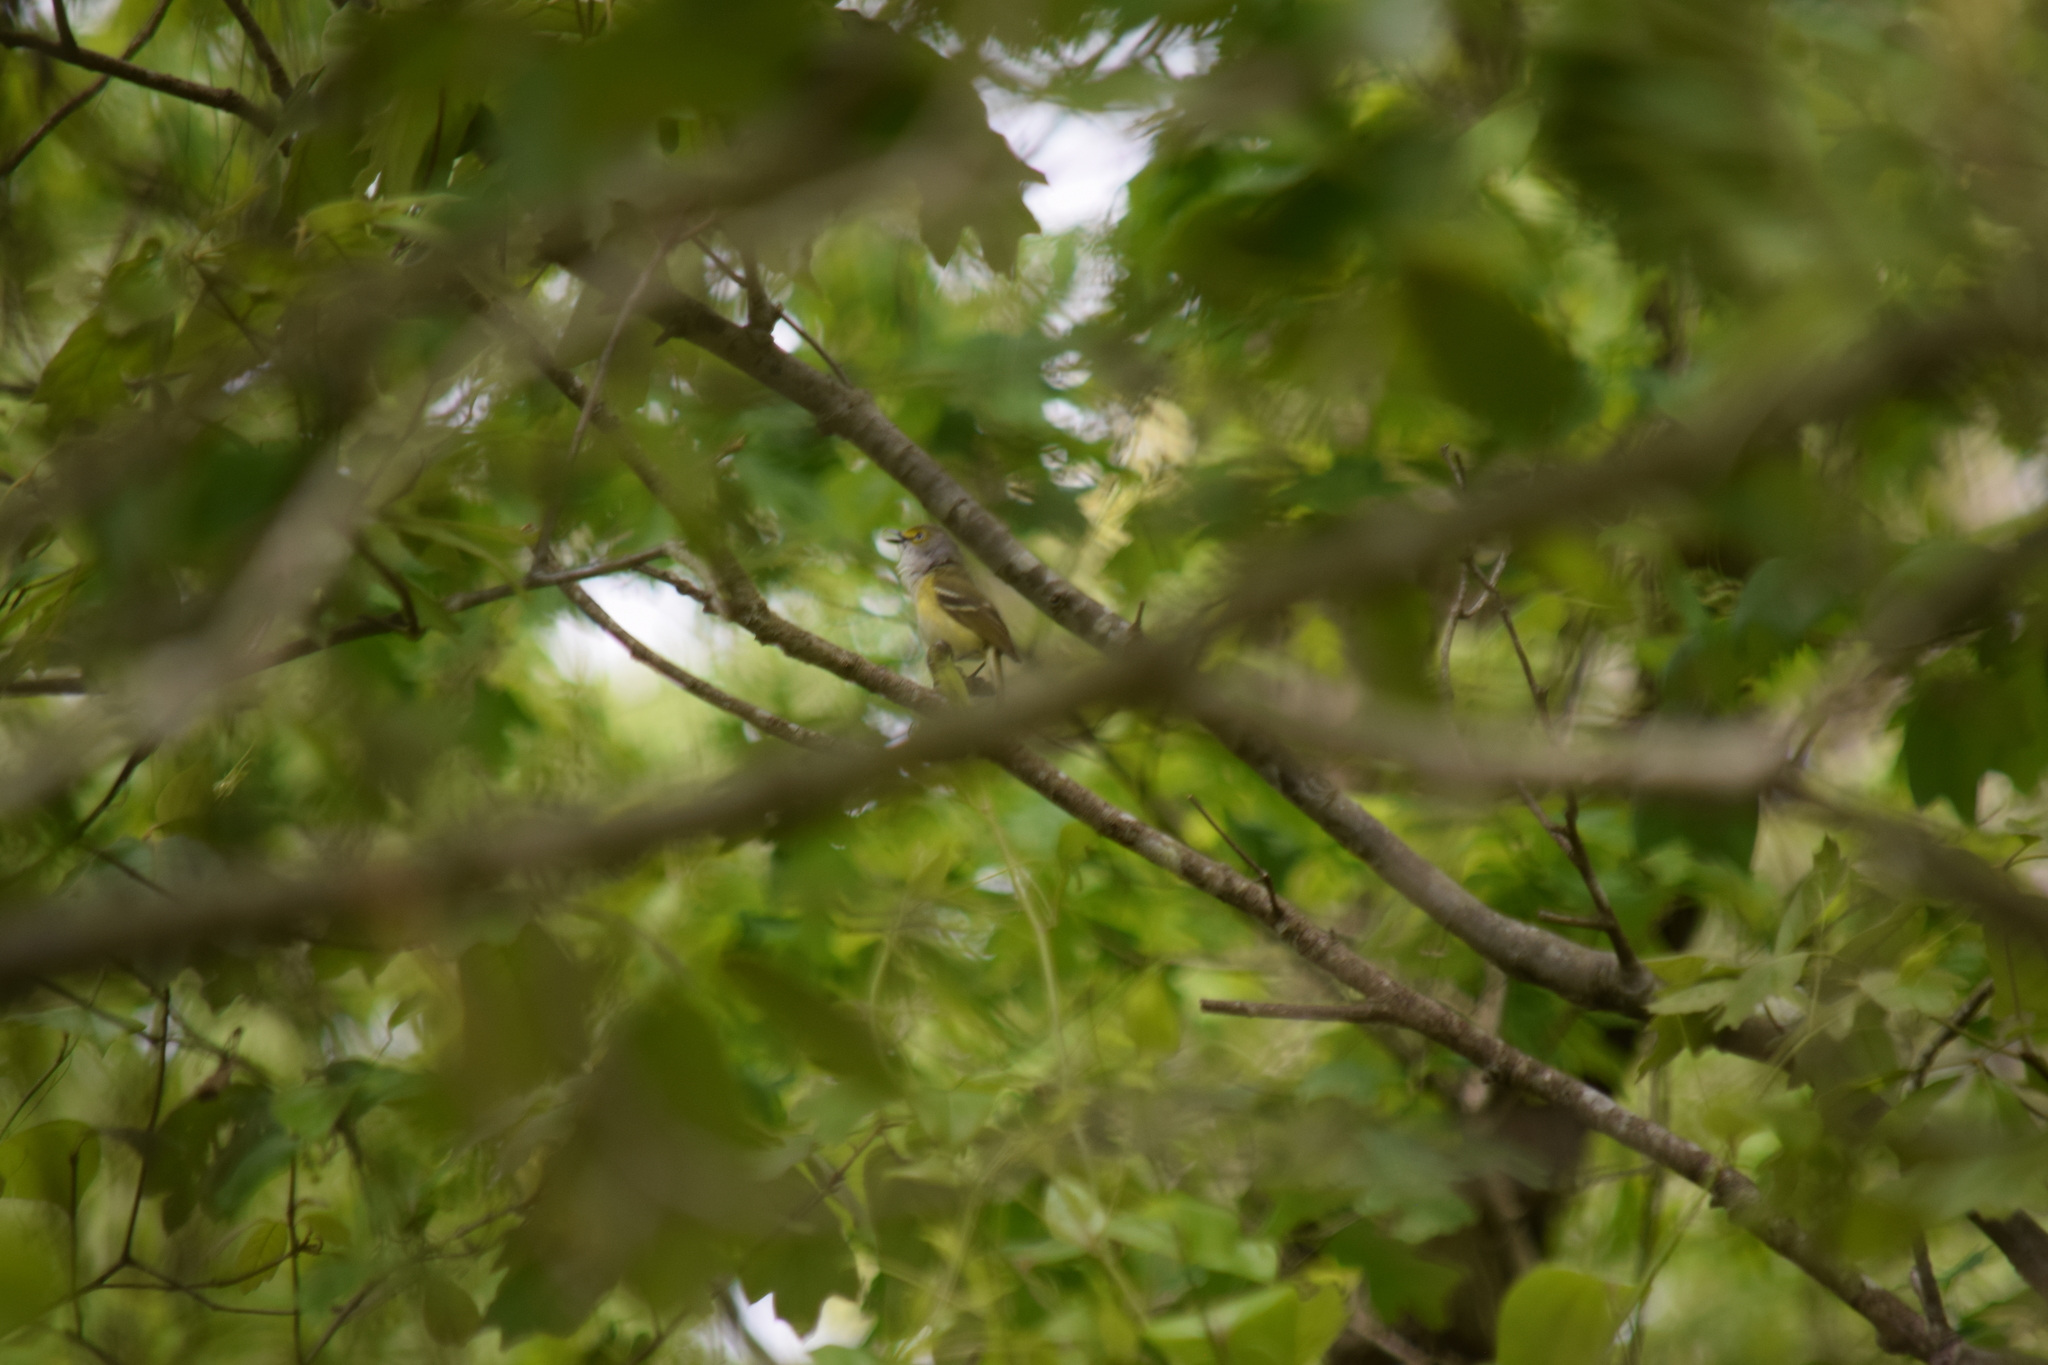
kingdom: Animalia
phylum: Chordata
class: Aves
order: Passeriformes
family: Vireonidae
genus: Vireo
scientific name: Vireo griseus
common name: White-eyed vireo
